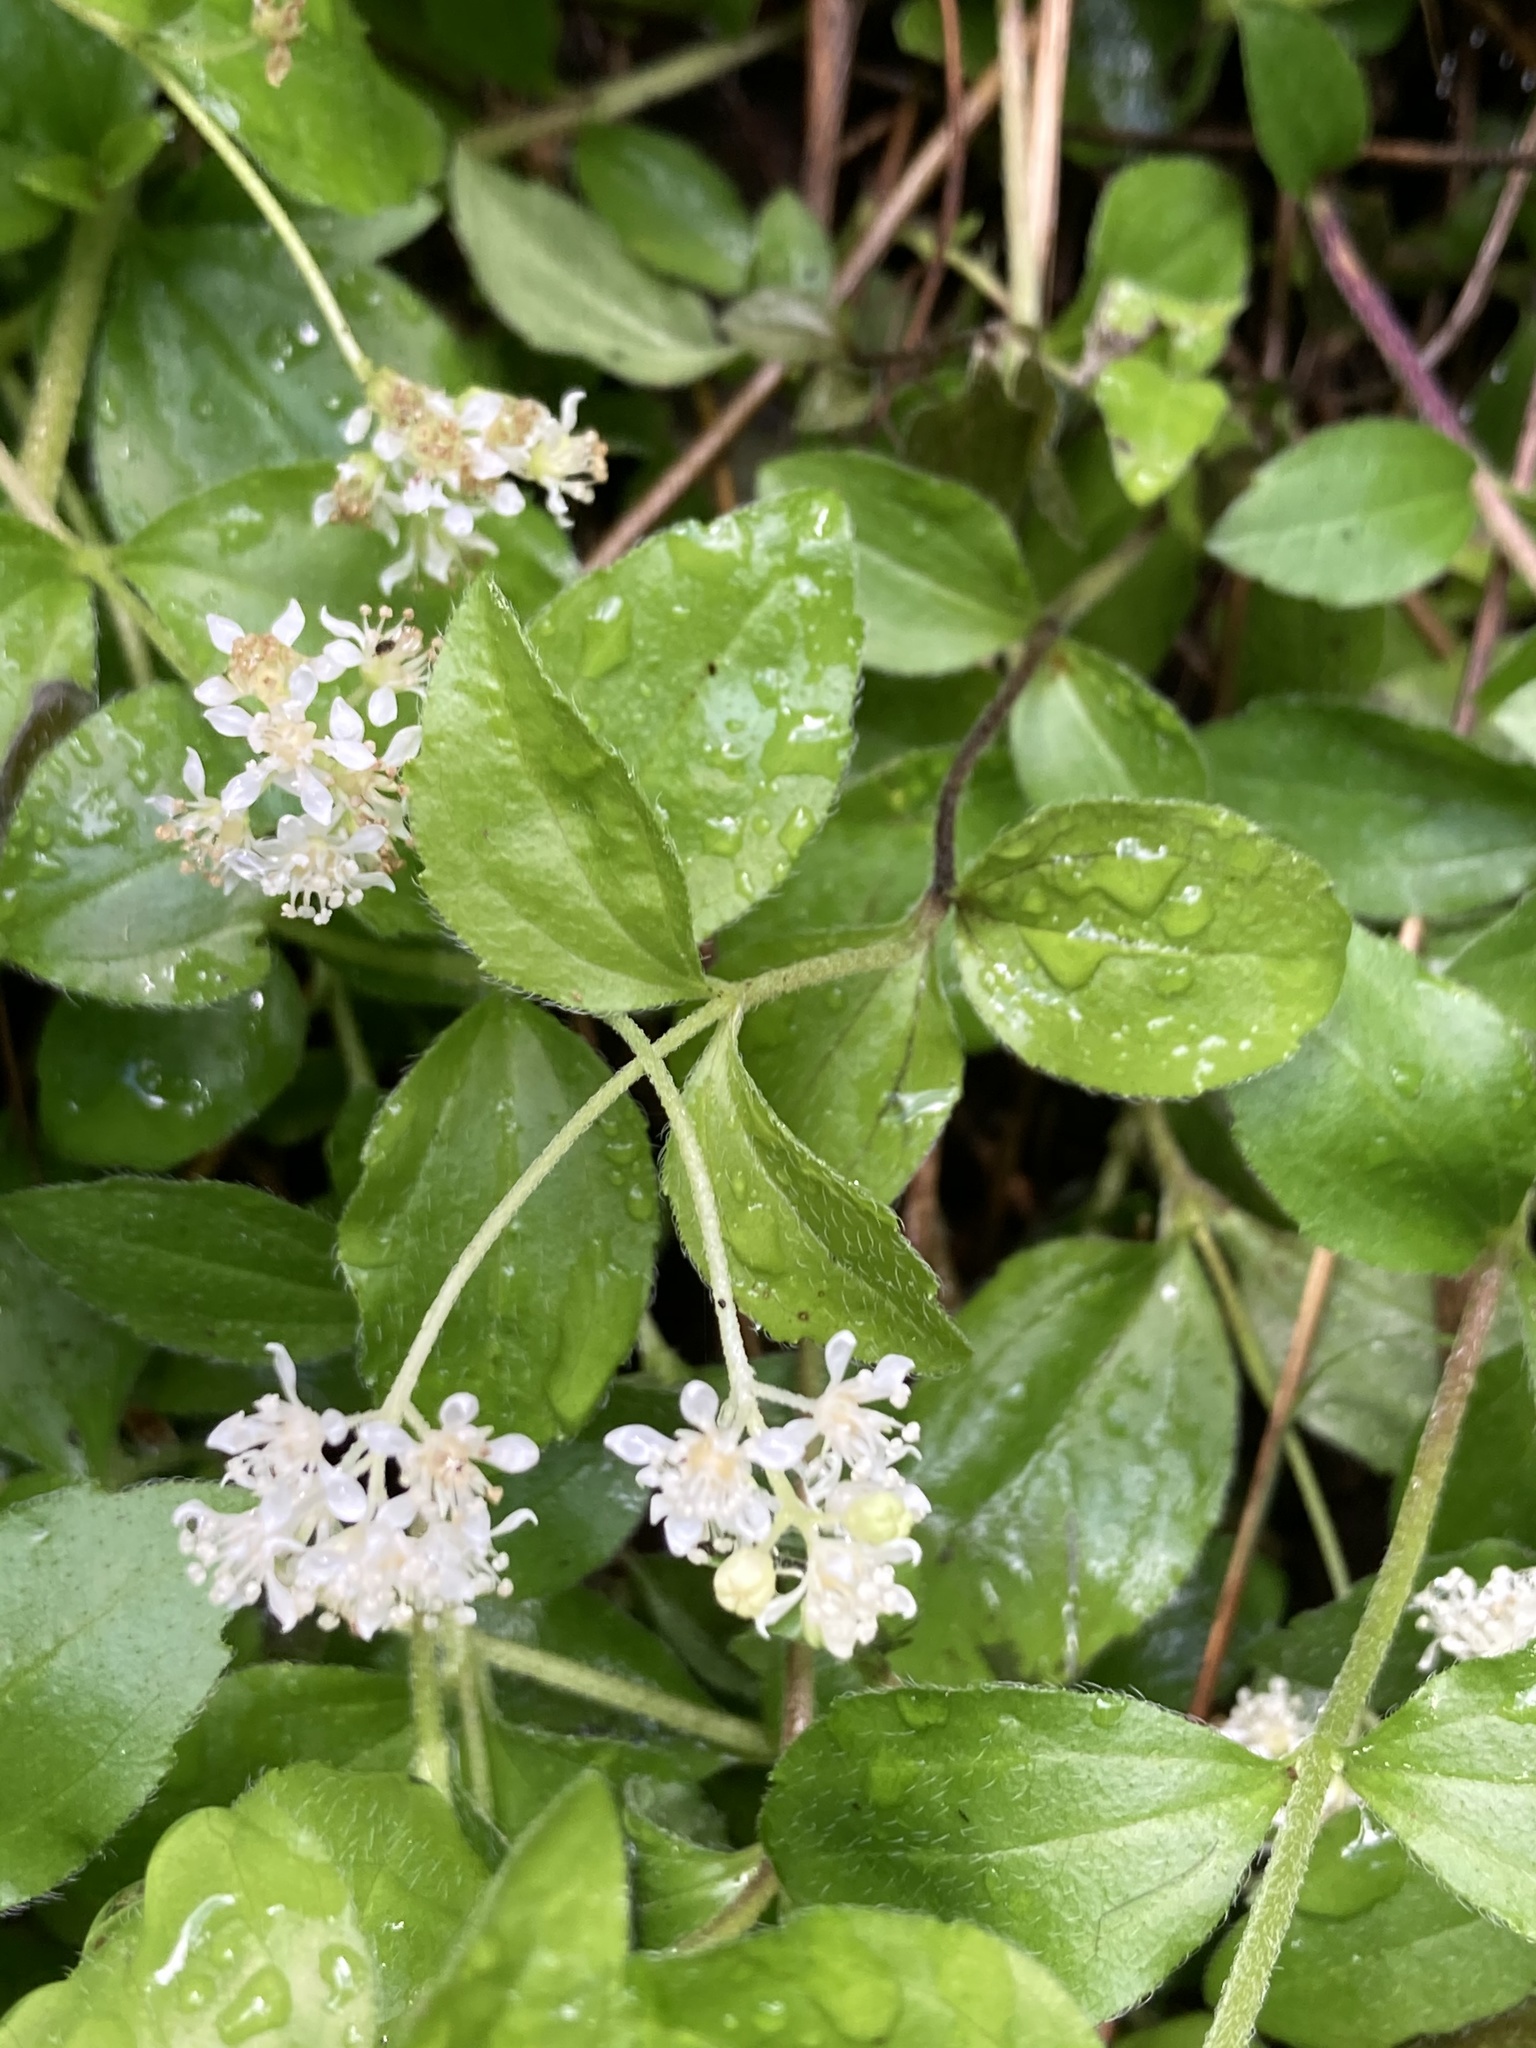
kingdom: Plantae
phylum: Tracheophyta
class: Magnoliopsida
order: Cornales
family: Hydrangeaceae
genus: Whipplea
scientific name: Whipplea modesta
